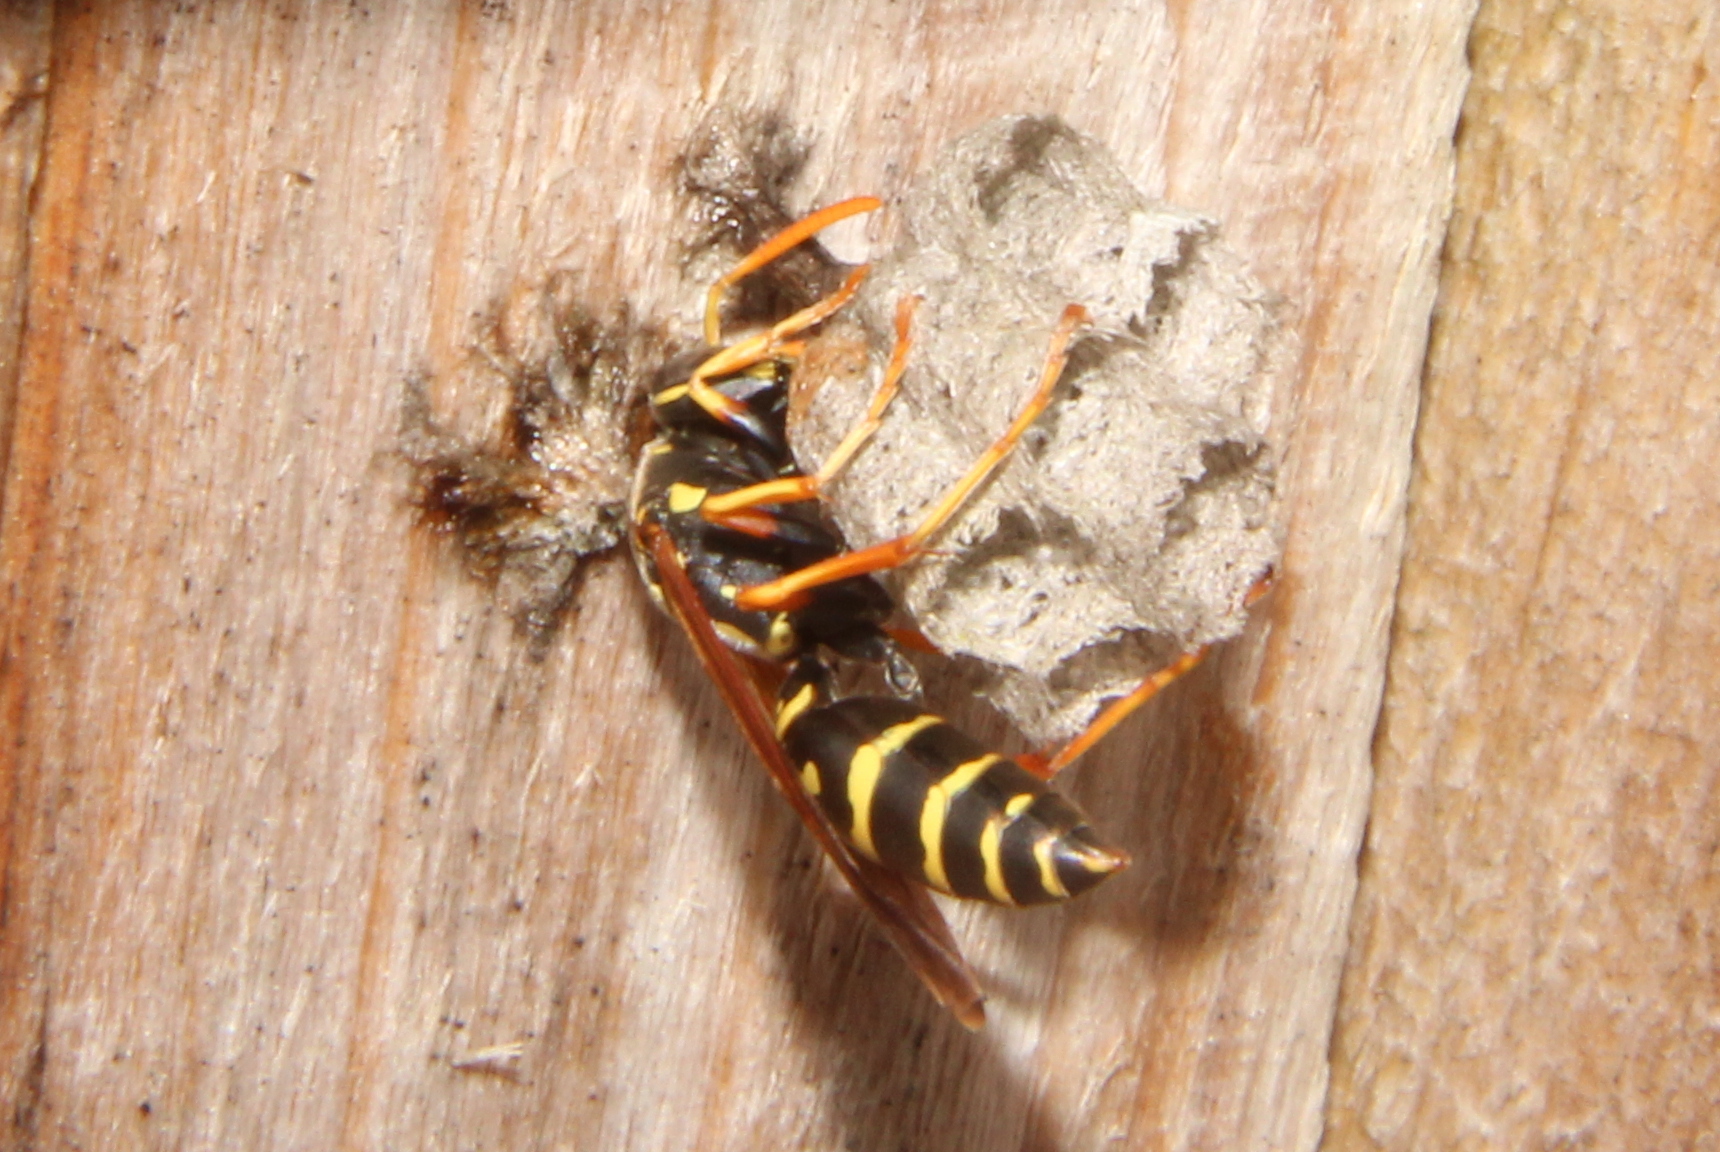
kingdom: Animalia
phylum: Arthropoda
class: Insecta
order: Hymenoptera
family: Eumenidae
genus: Polistes
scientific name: Polistes chinensis
